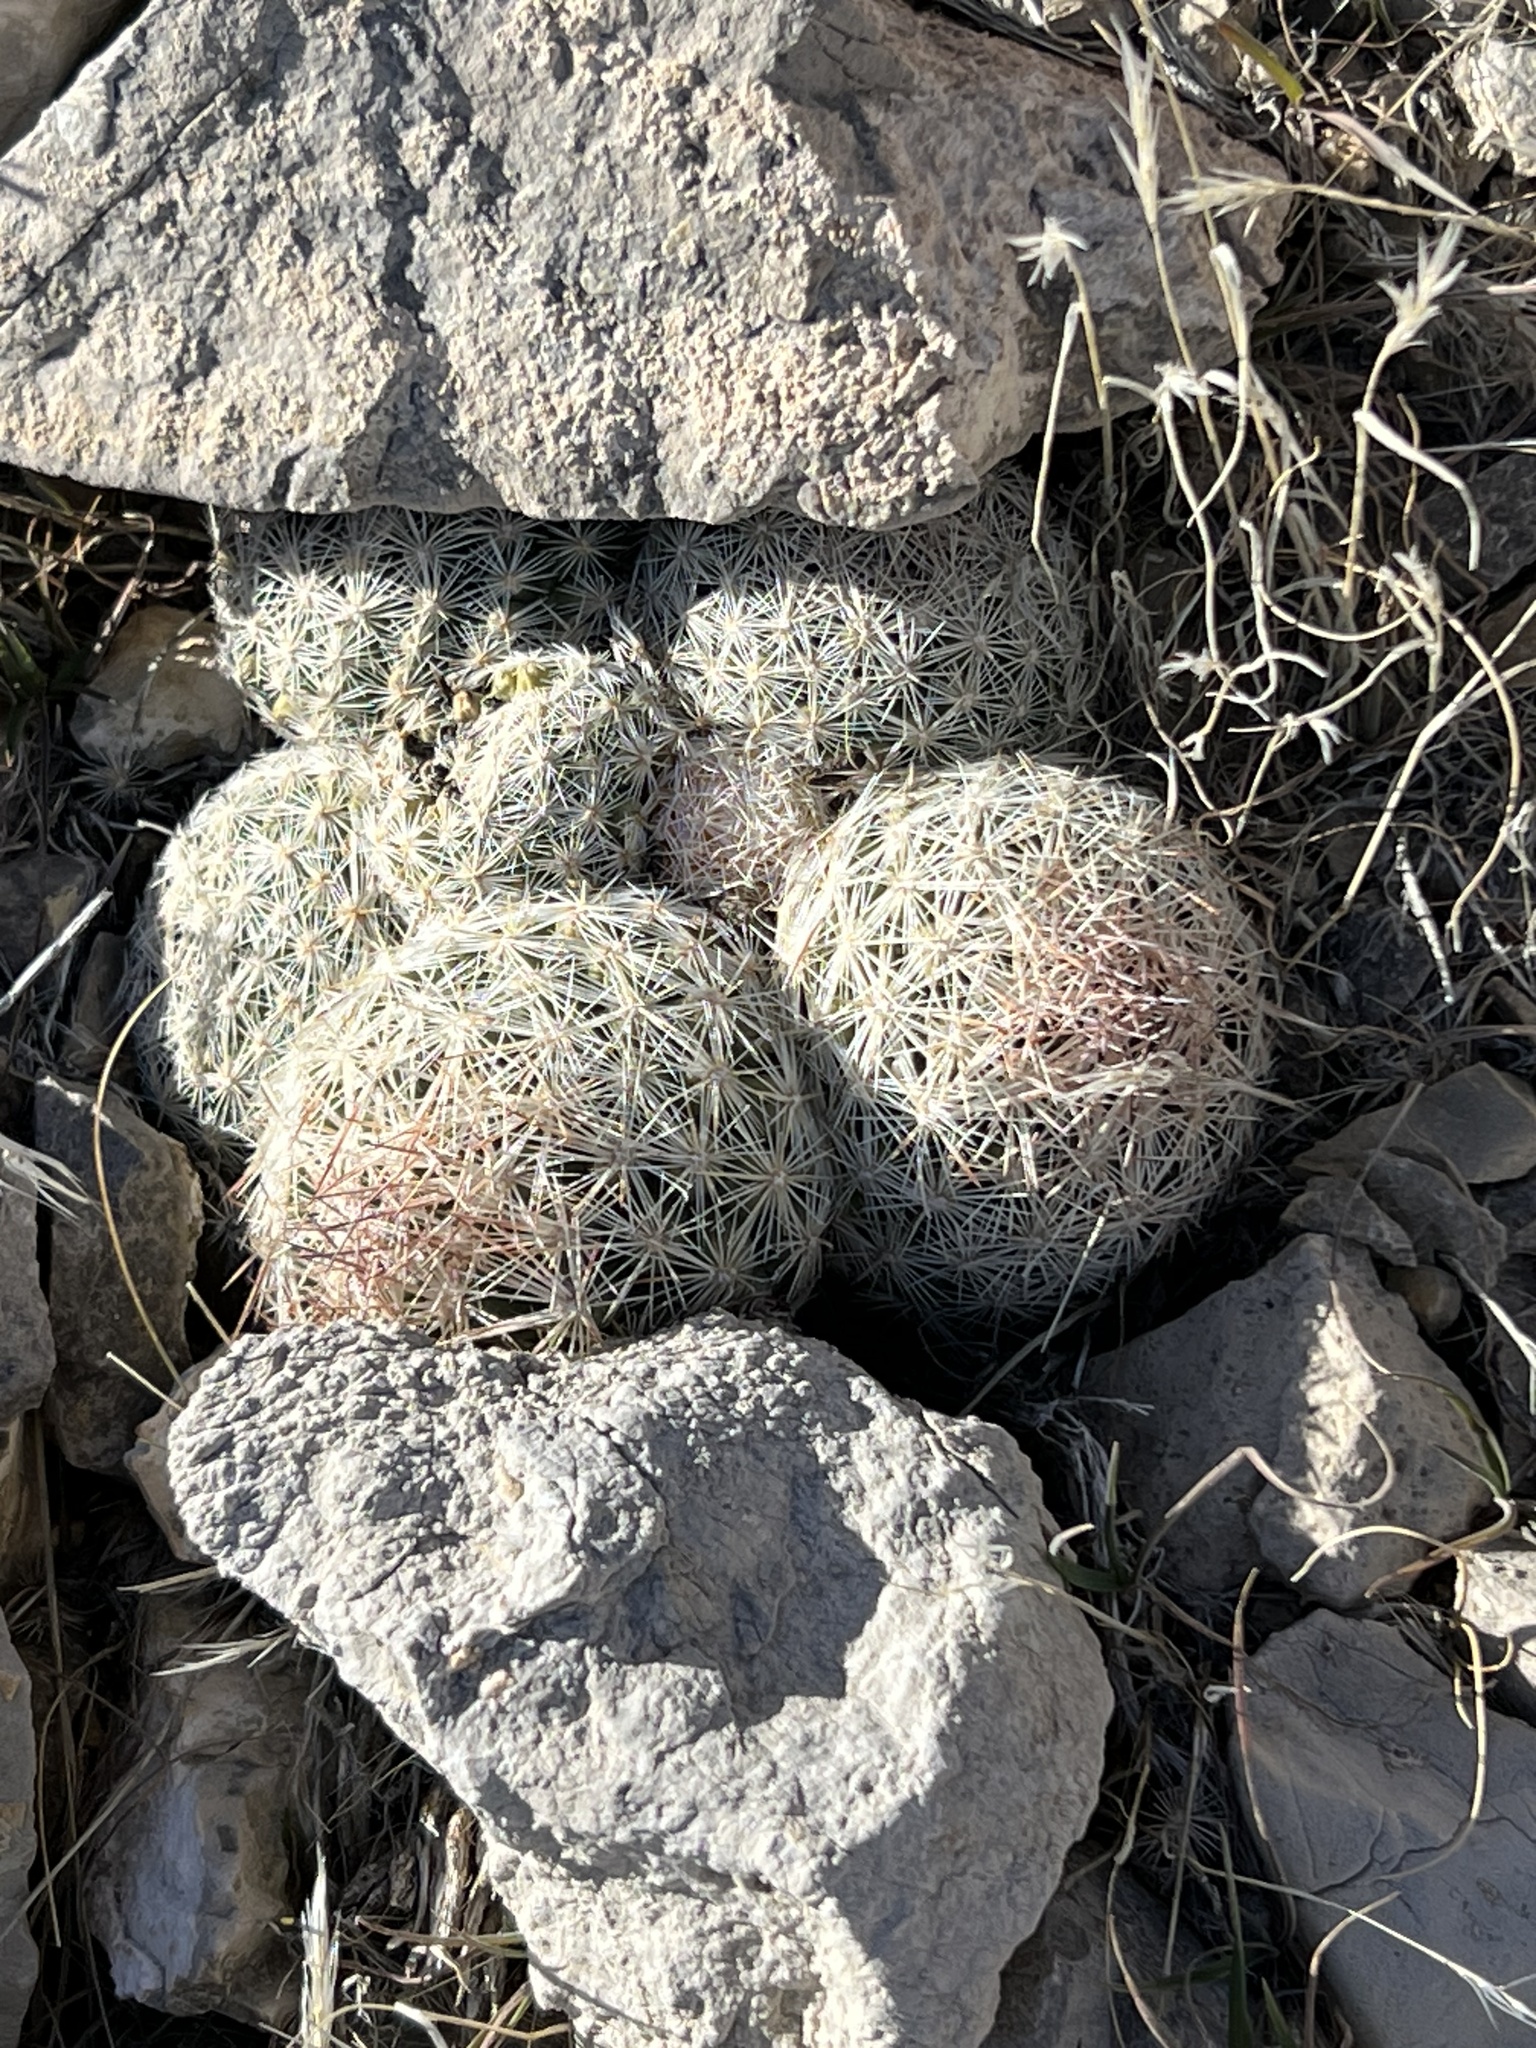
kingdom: Plantae
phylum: Tracheophyta
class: Magnoliopsida
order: Caryophyllales
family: Cactaceae
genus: Pelecyphora
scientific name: Pelecyphora dasyacantha
